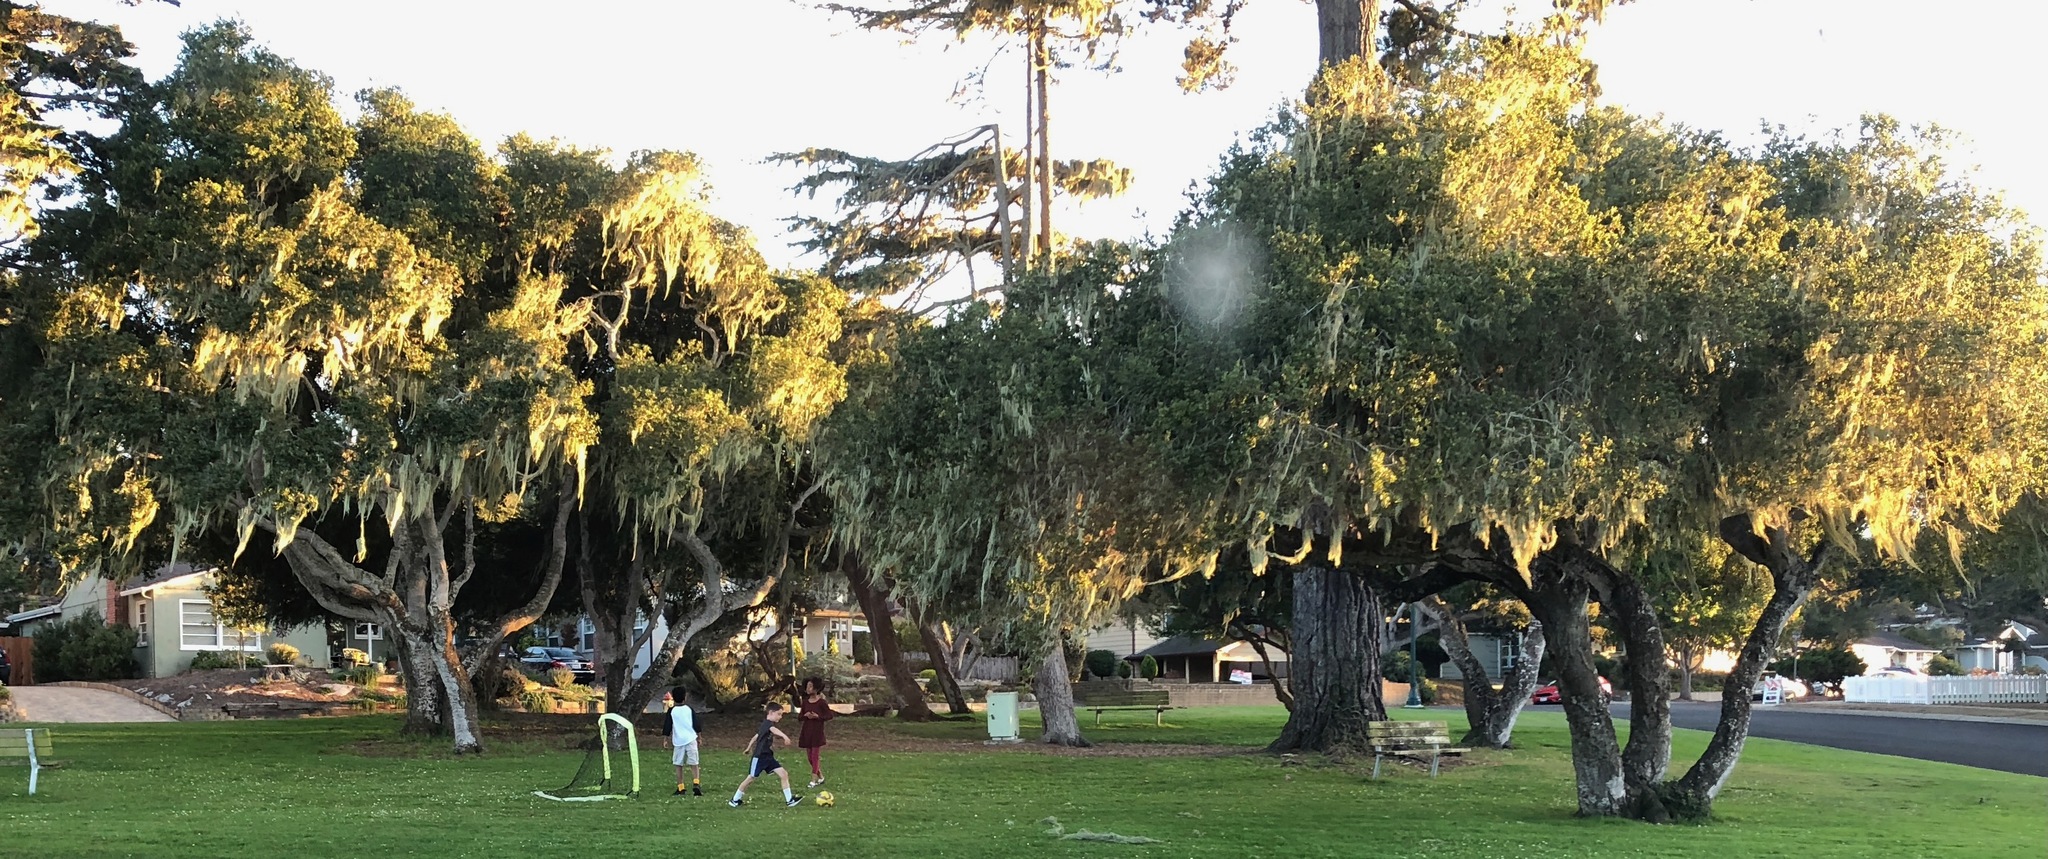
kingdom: Plantae
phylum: Tracheophyta
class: Magnoliopsida
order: Fagales
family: Fagaceae
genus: Quercus
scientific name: Quercus agrifolia
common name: California live oak
